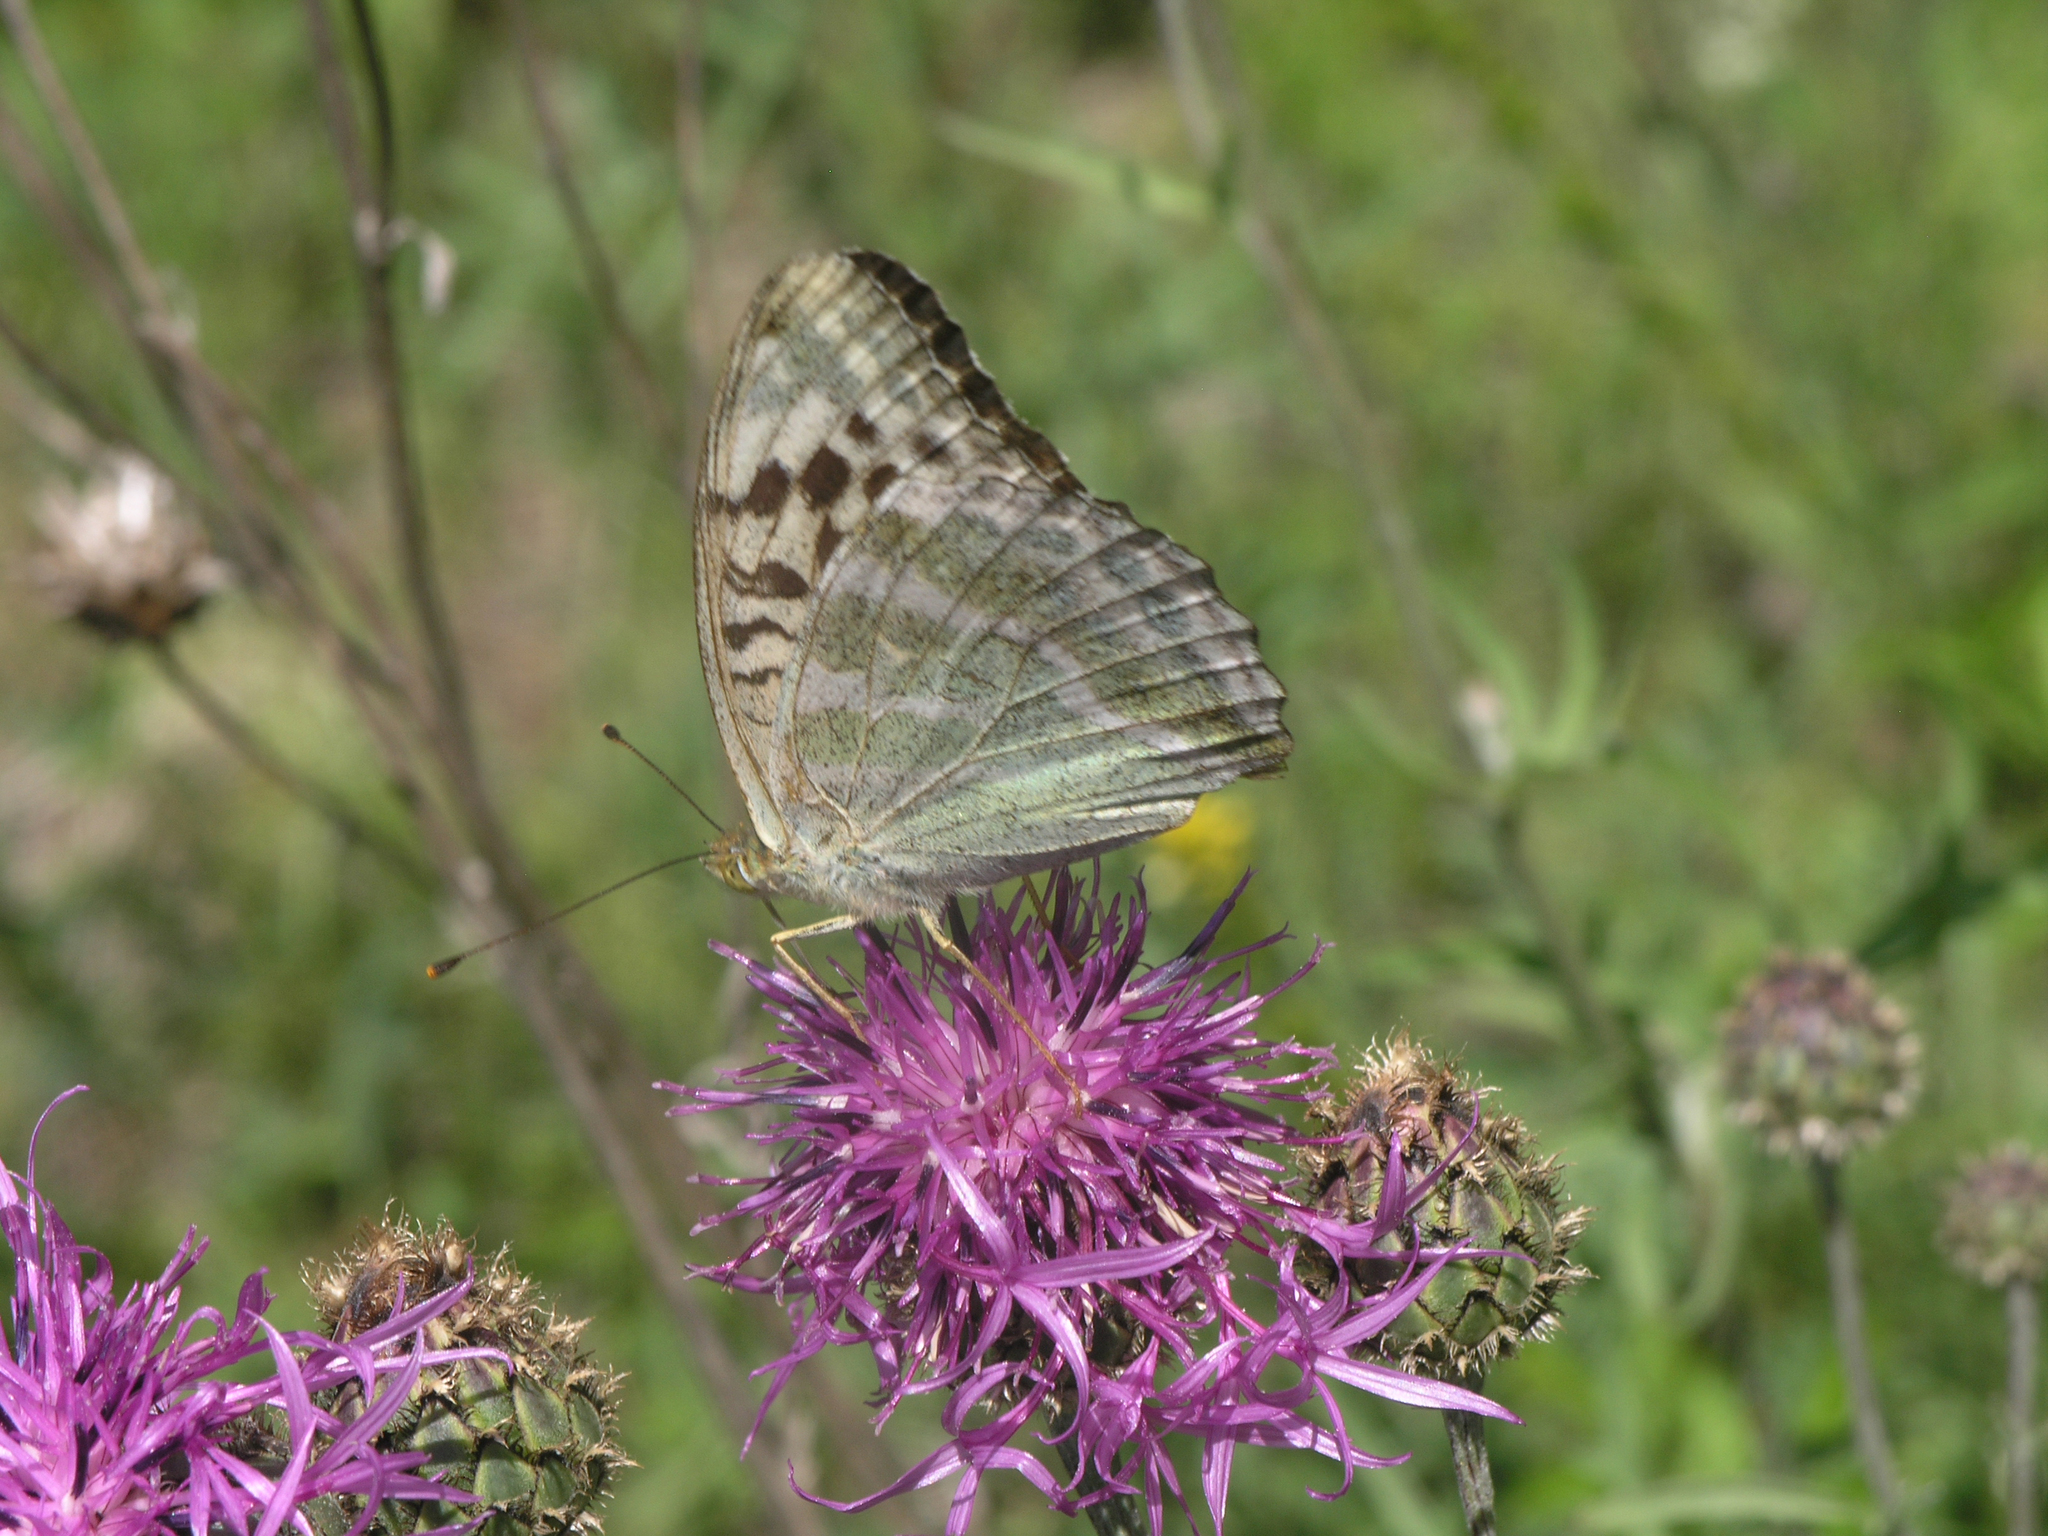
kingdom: Plantae
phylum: Tracheophyta
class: Magnoliopsida
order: Asterales
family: Asteraceae
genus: Centaurea
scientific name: Centaurea scabiosa
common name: Greater knapweed
